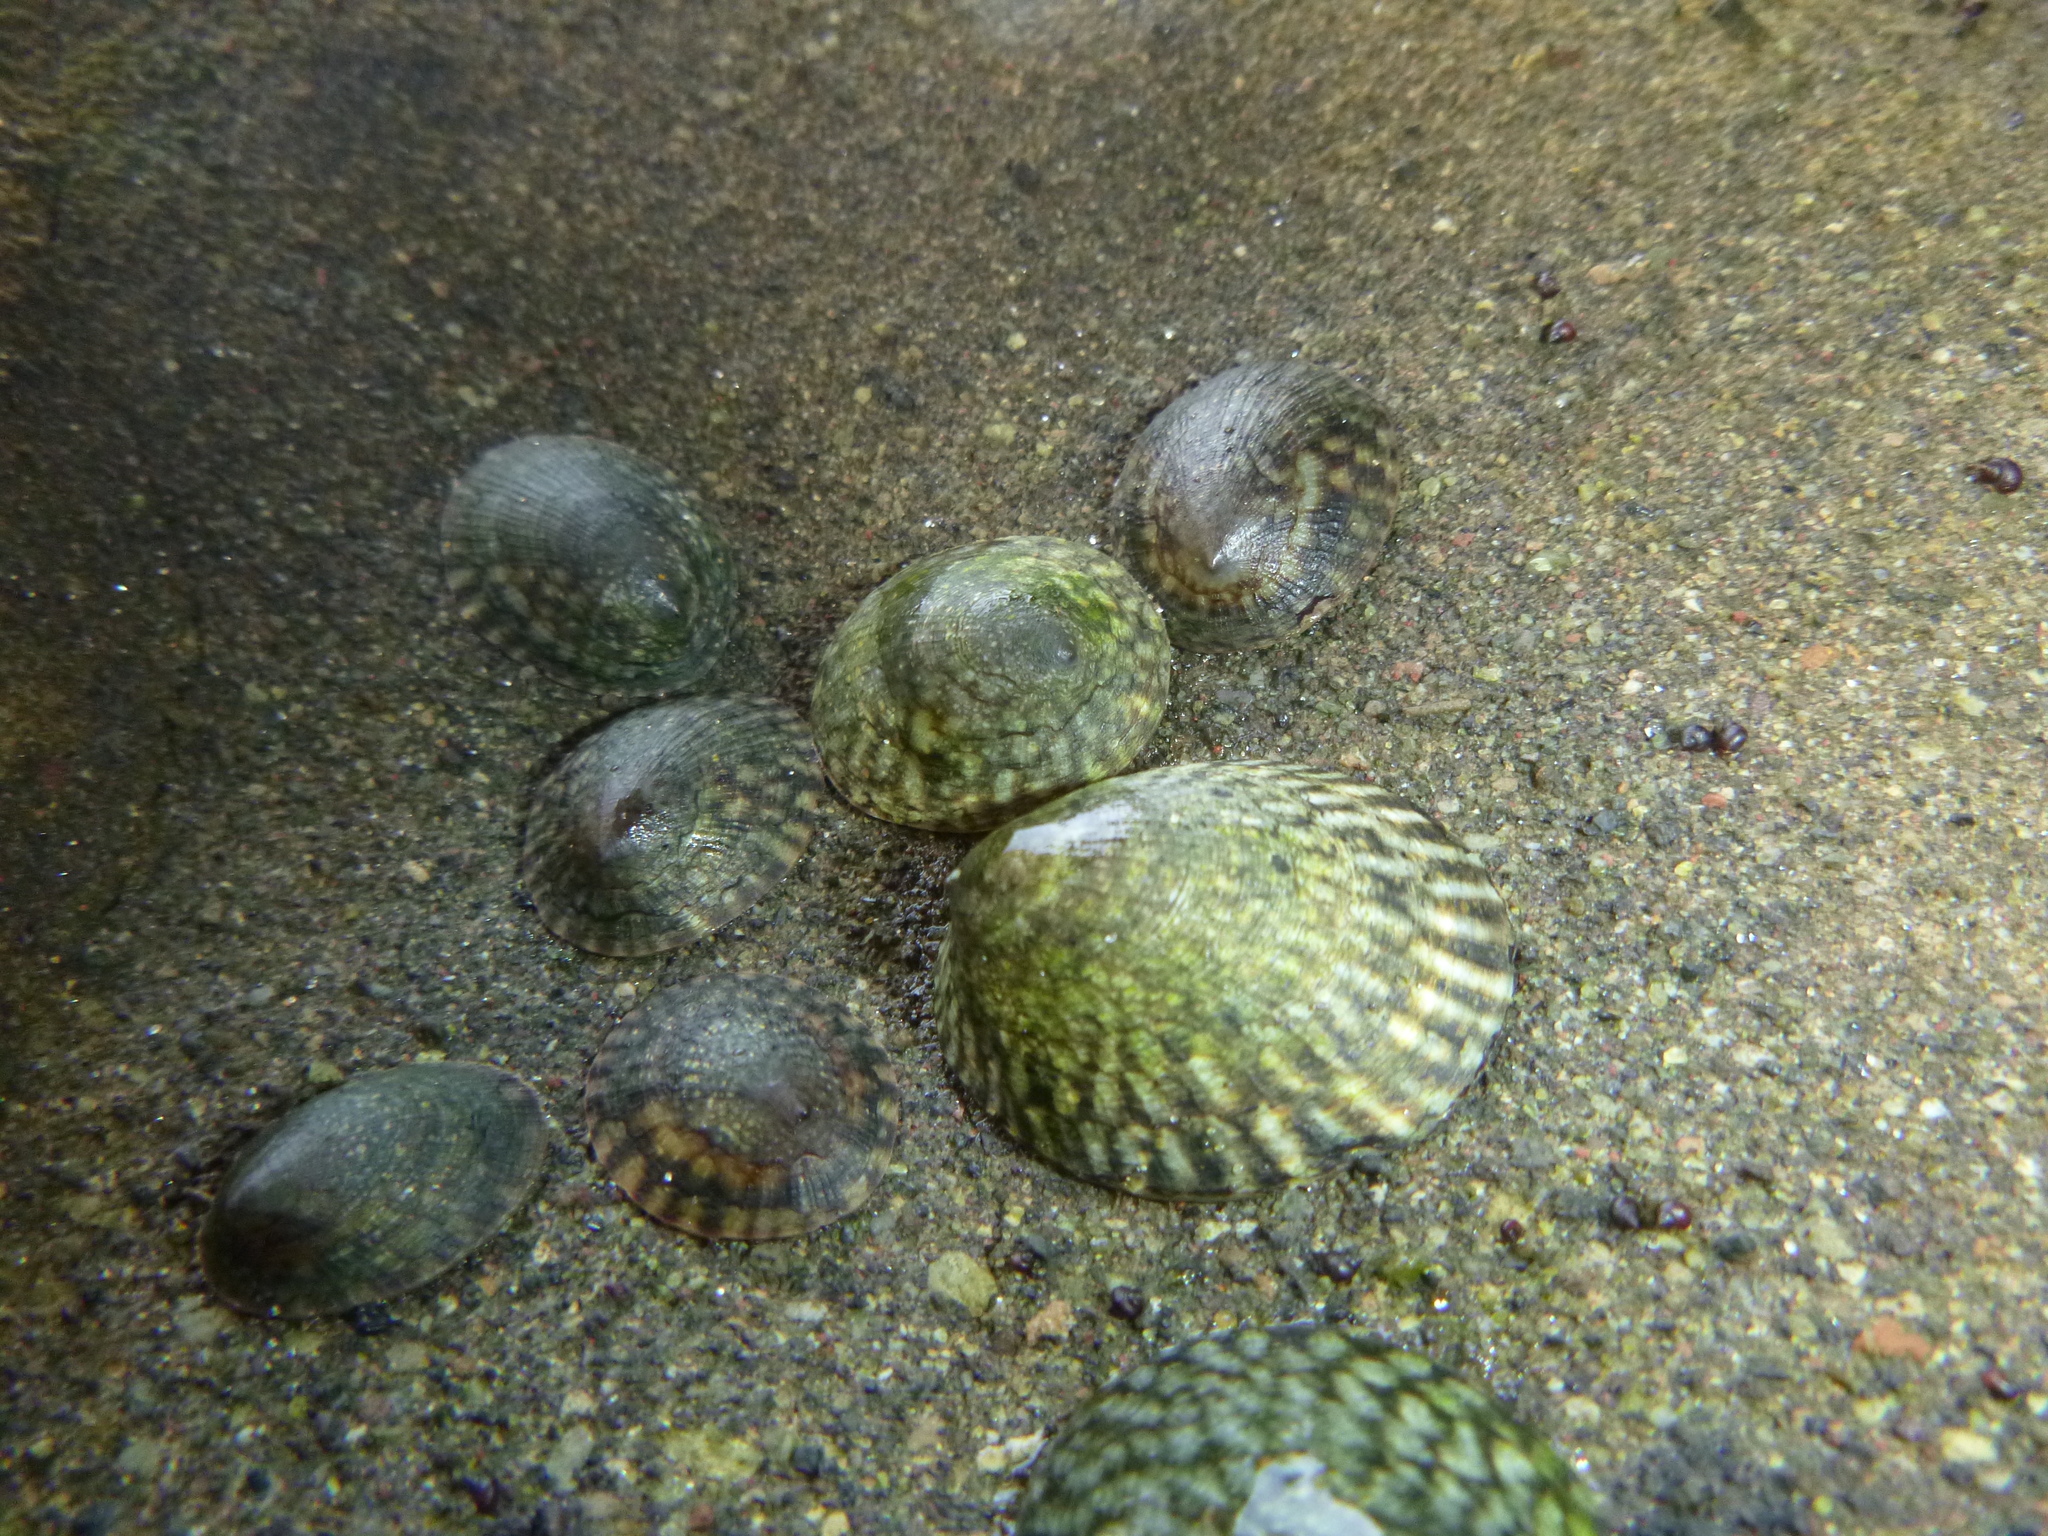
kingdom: Animalia
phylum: Mollusca
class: Gastropoda
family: Lottiidae
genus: Notoacmea
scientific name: Notoacmea pileopsis
